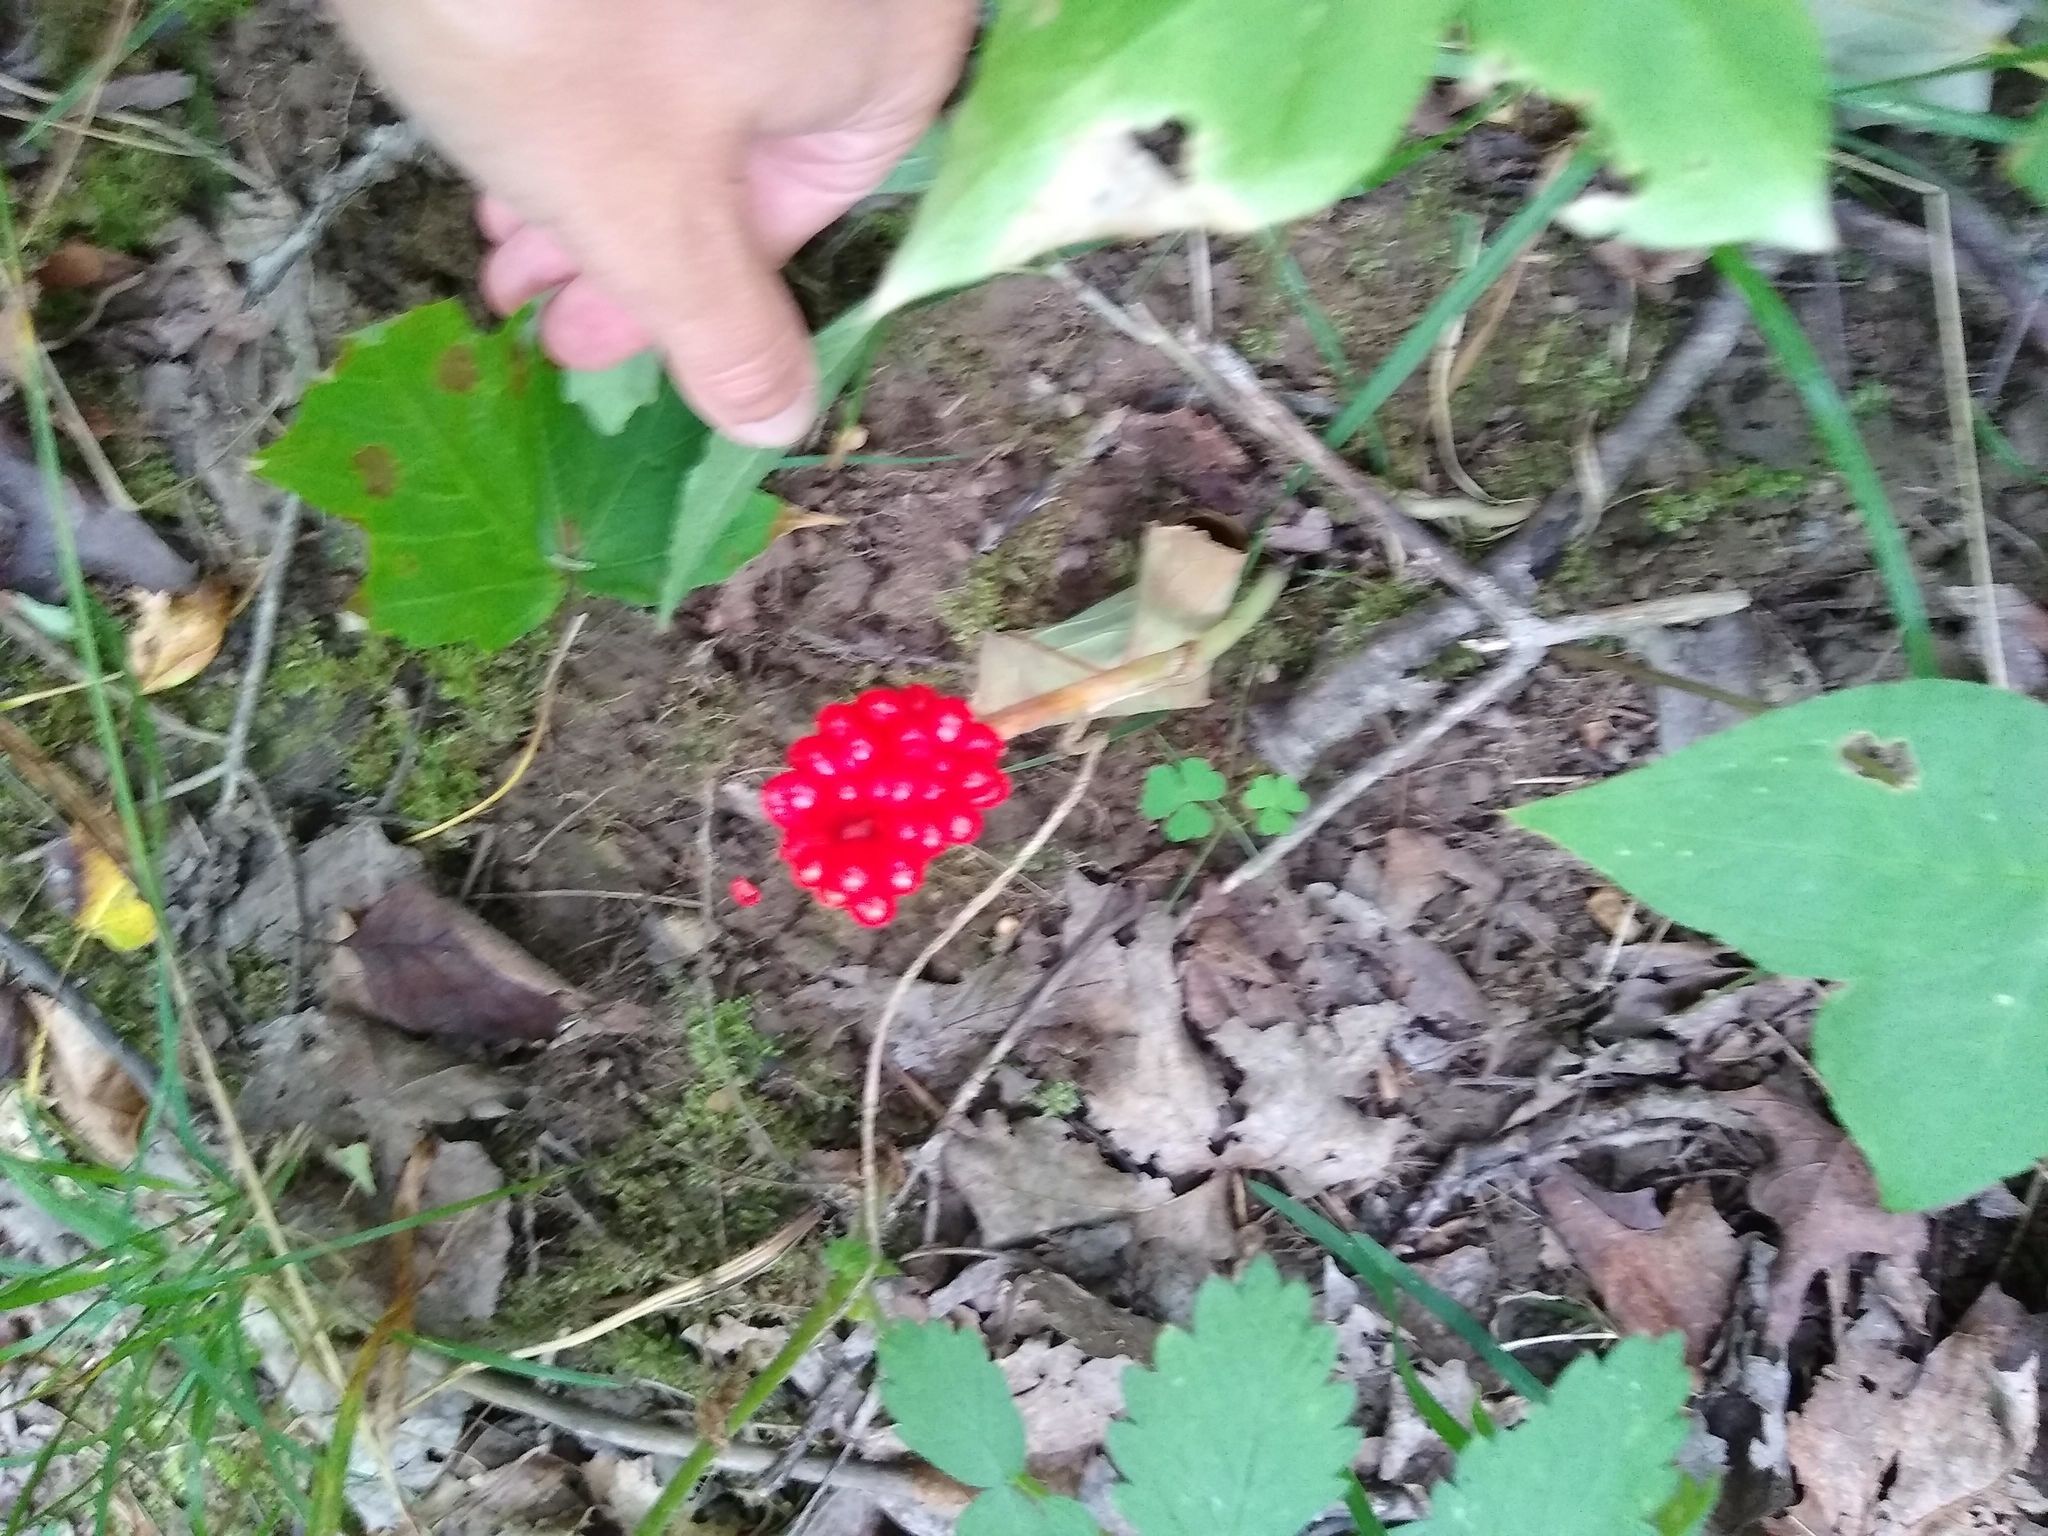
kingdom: Plantae
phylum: Tracheophyta
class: Liliopsida
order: Alismatales
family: Araceae
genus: Arisaema
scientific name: Arisaema triphyllum
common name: Jack-in-the-pulpit
